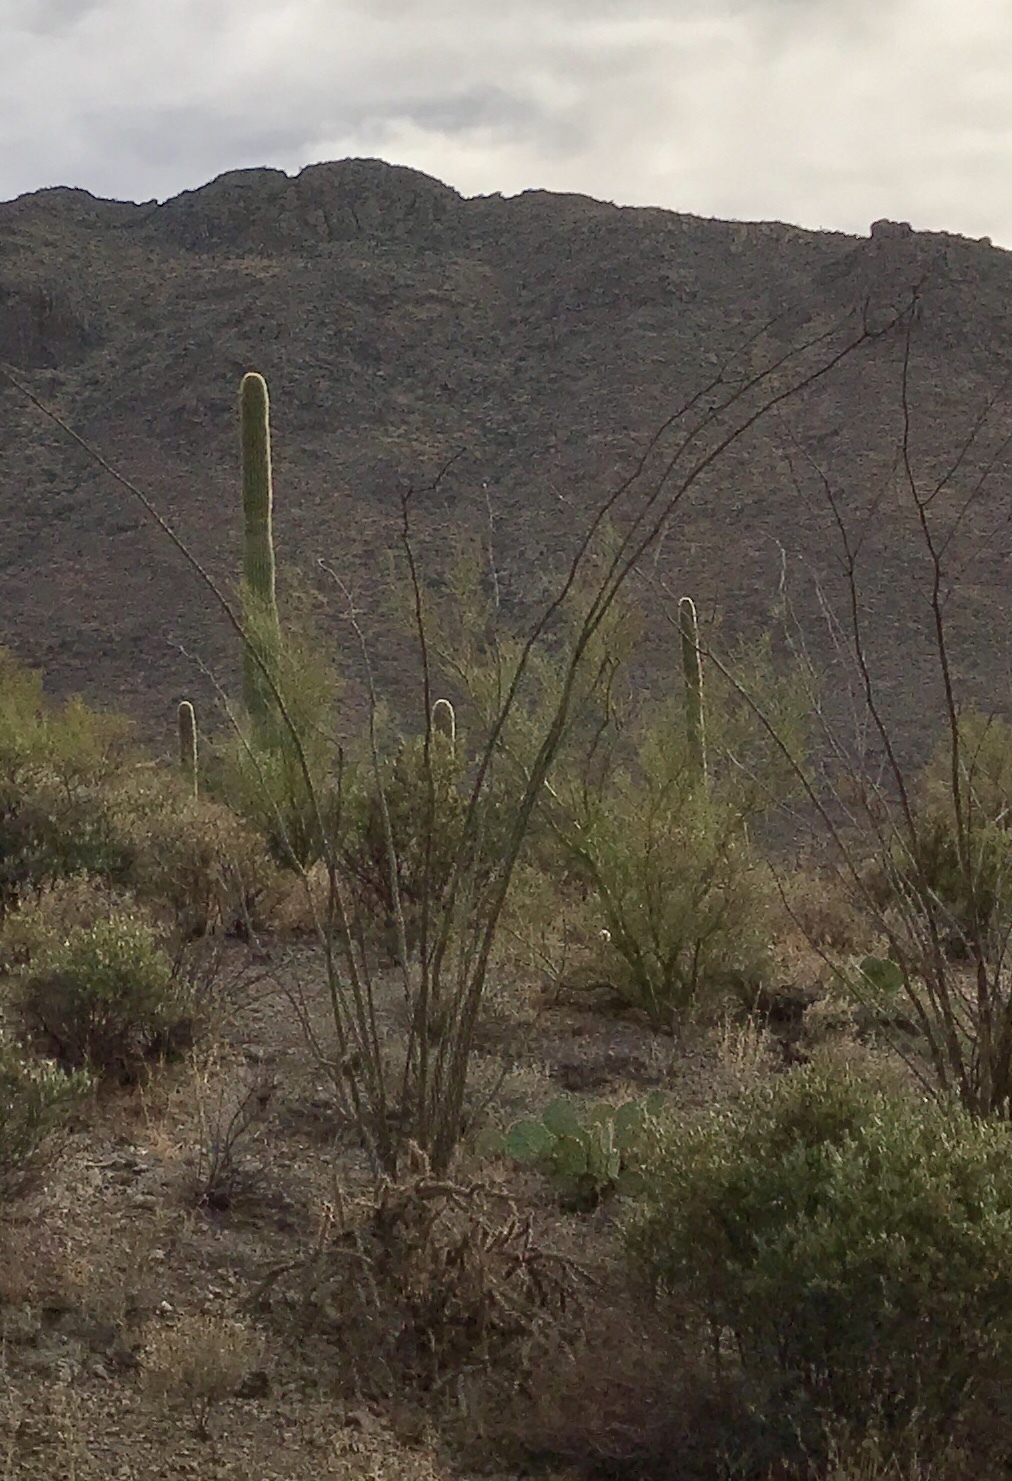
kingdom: Plantae
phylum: Tracheophyta
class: Magnoliopsida
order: Ericales
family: Fouquieriaceae
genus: Fouquieria
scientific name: Fouquieria splendens
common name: Vine-cactus
